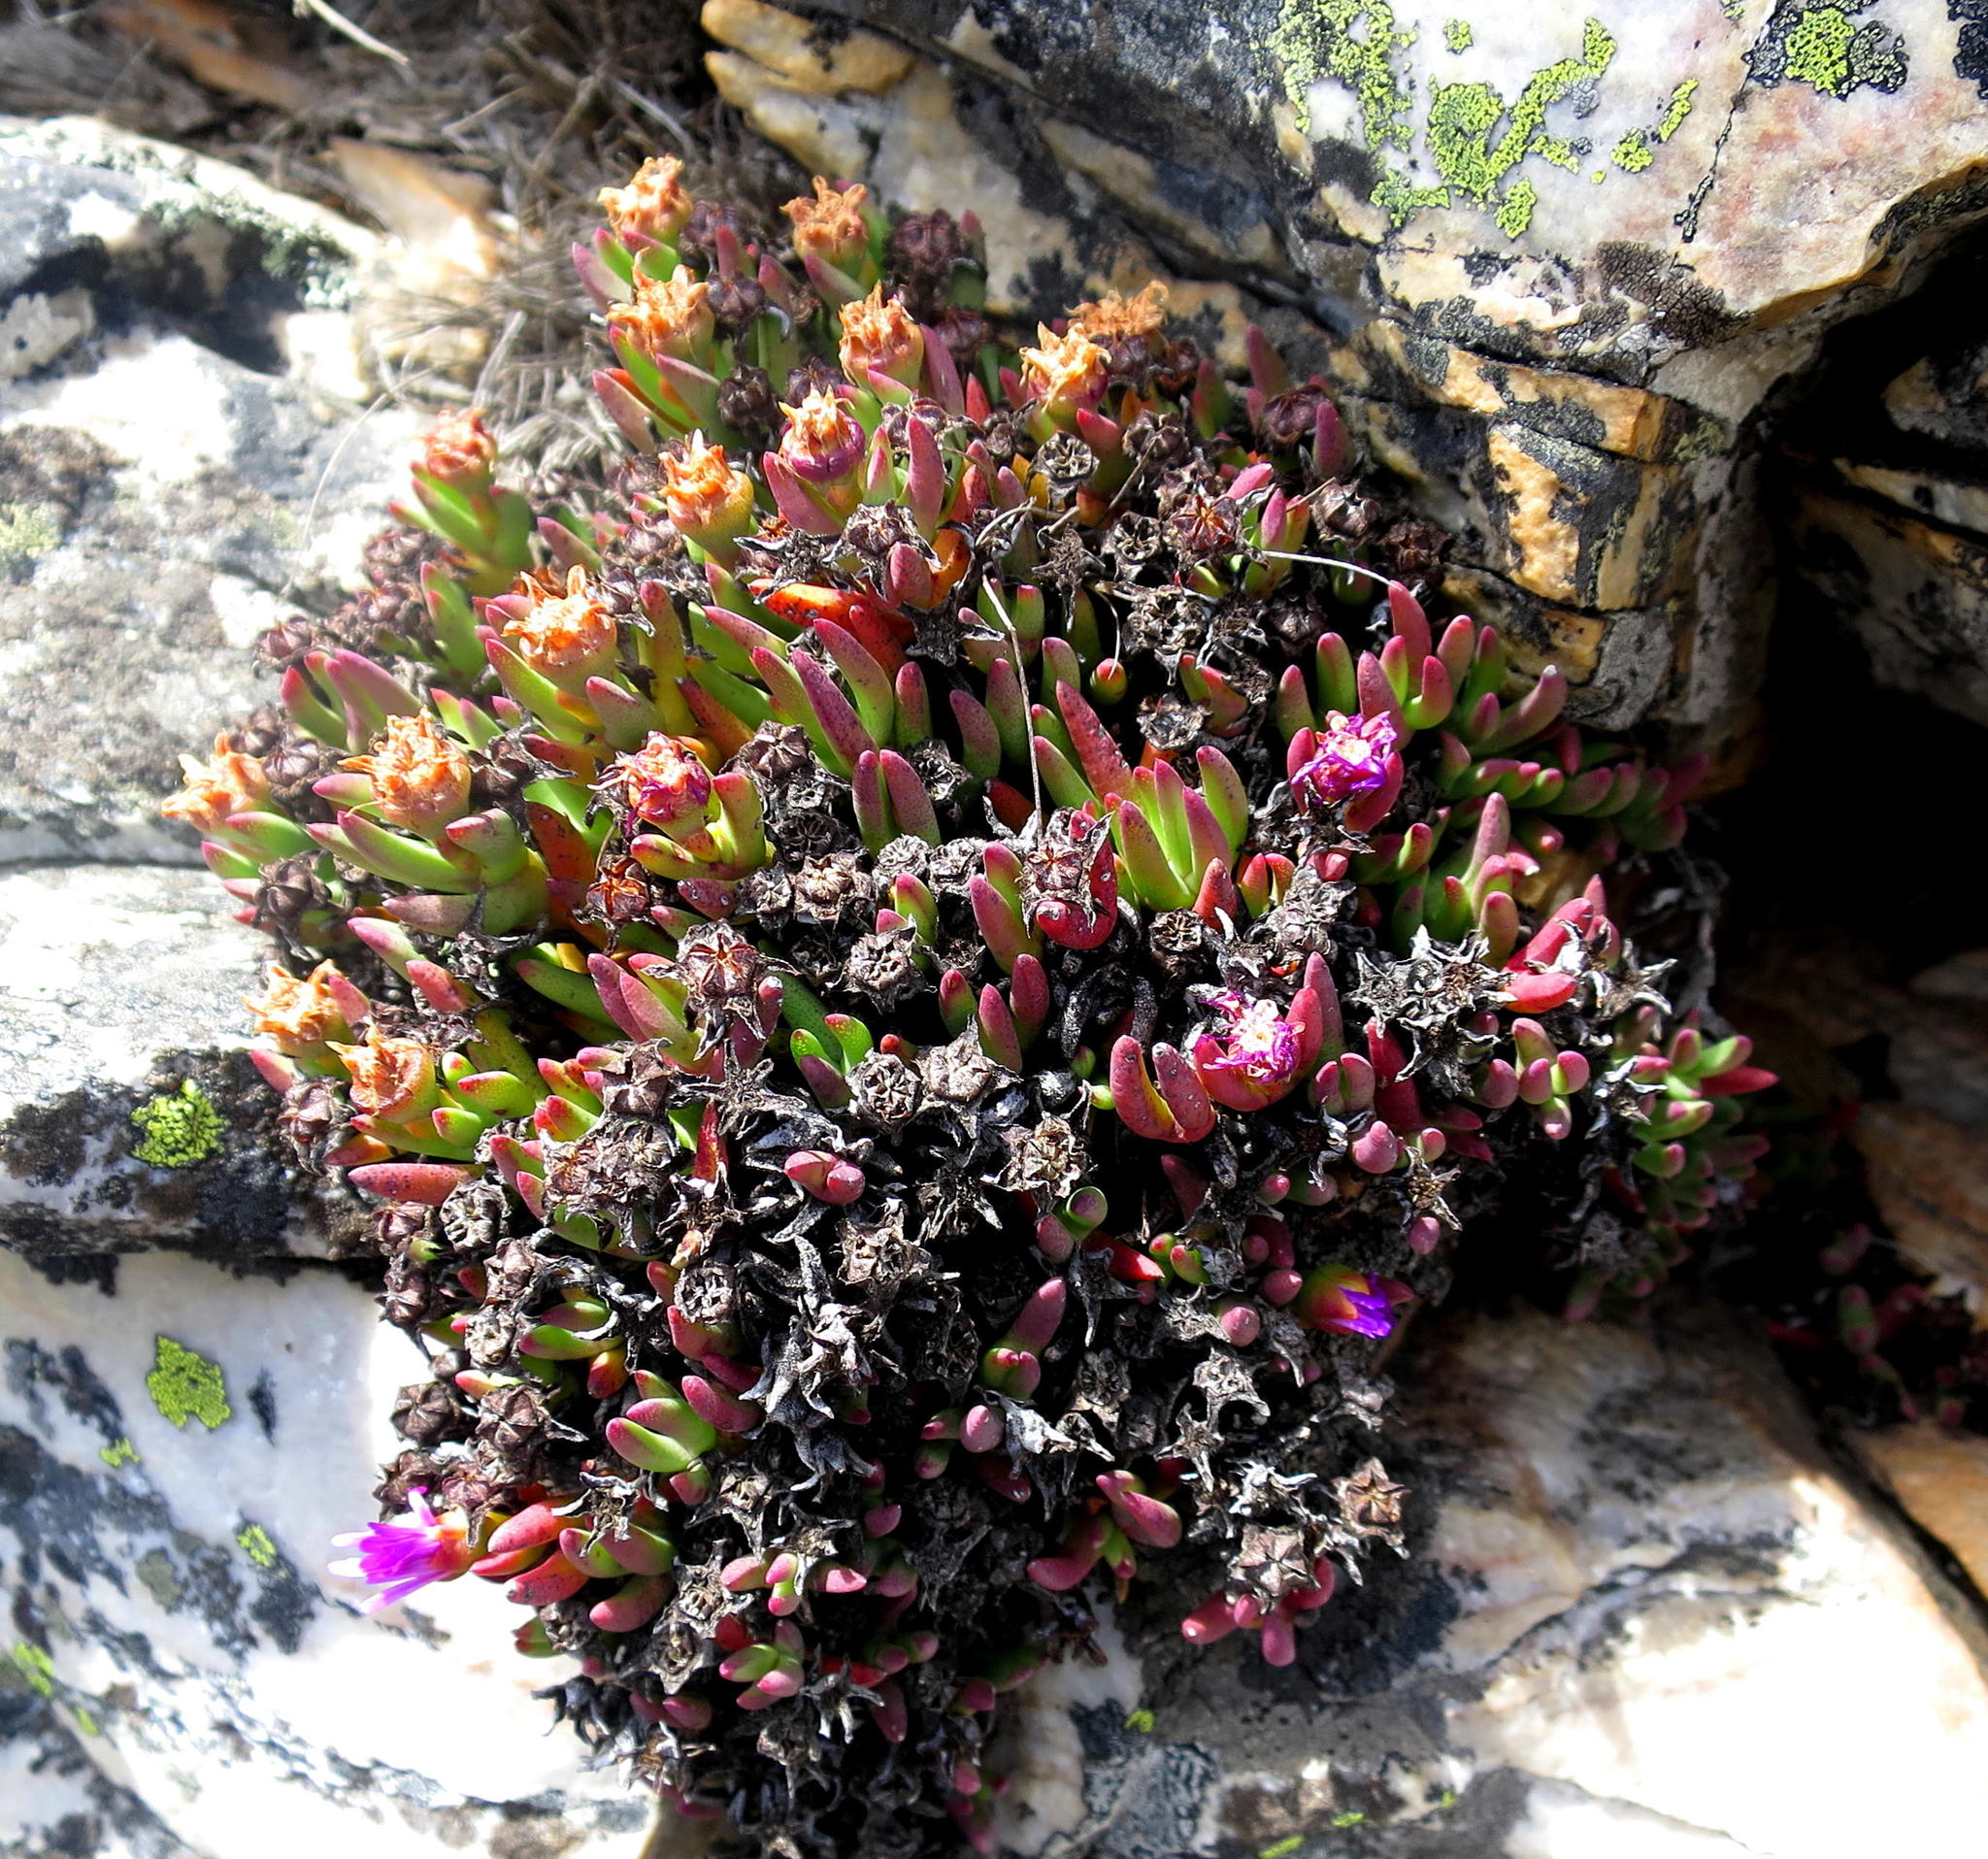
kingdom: Plantae
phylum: Tracheophyta
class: Magnoliopsida
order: Caryophyllales
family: Aizoaceae
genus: Ruschia
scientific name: Ruschia altigena
